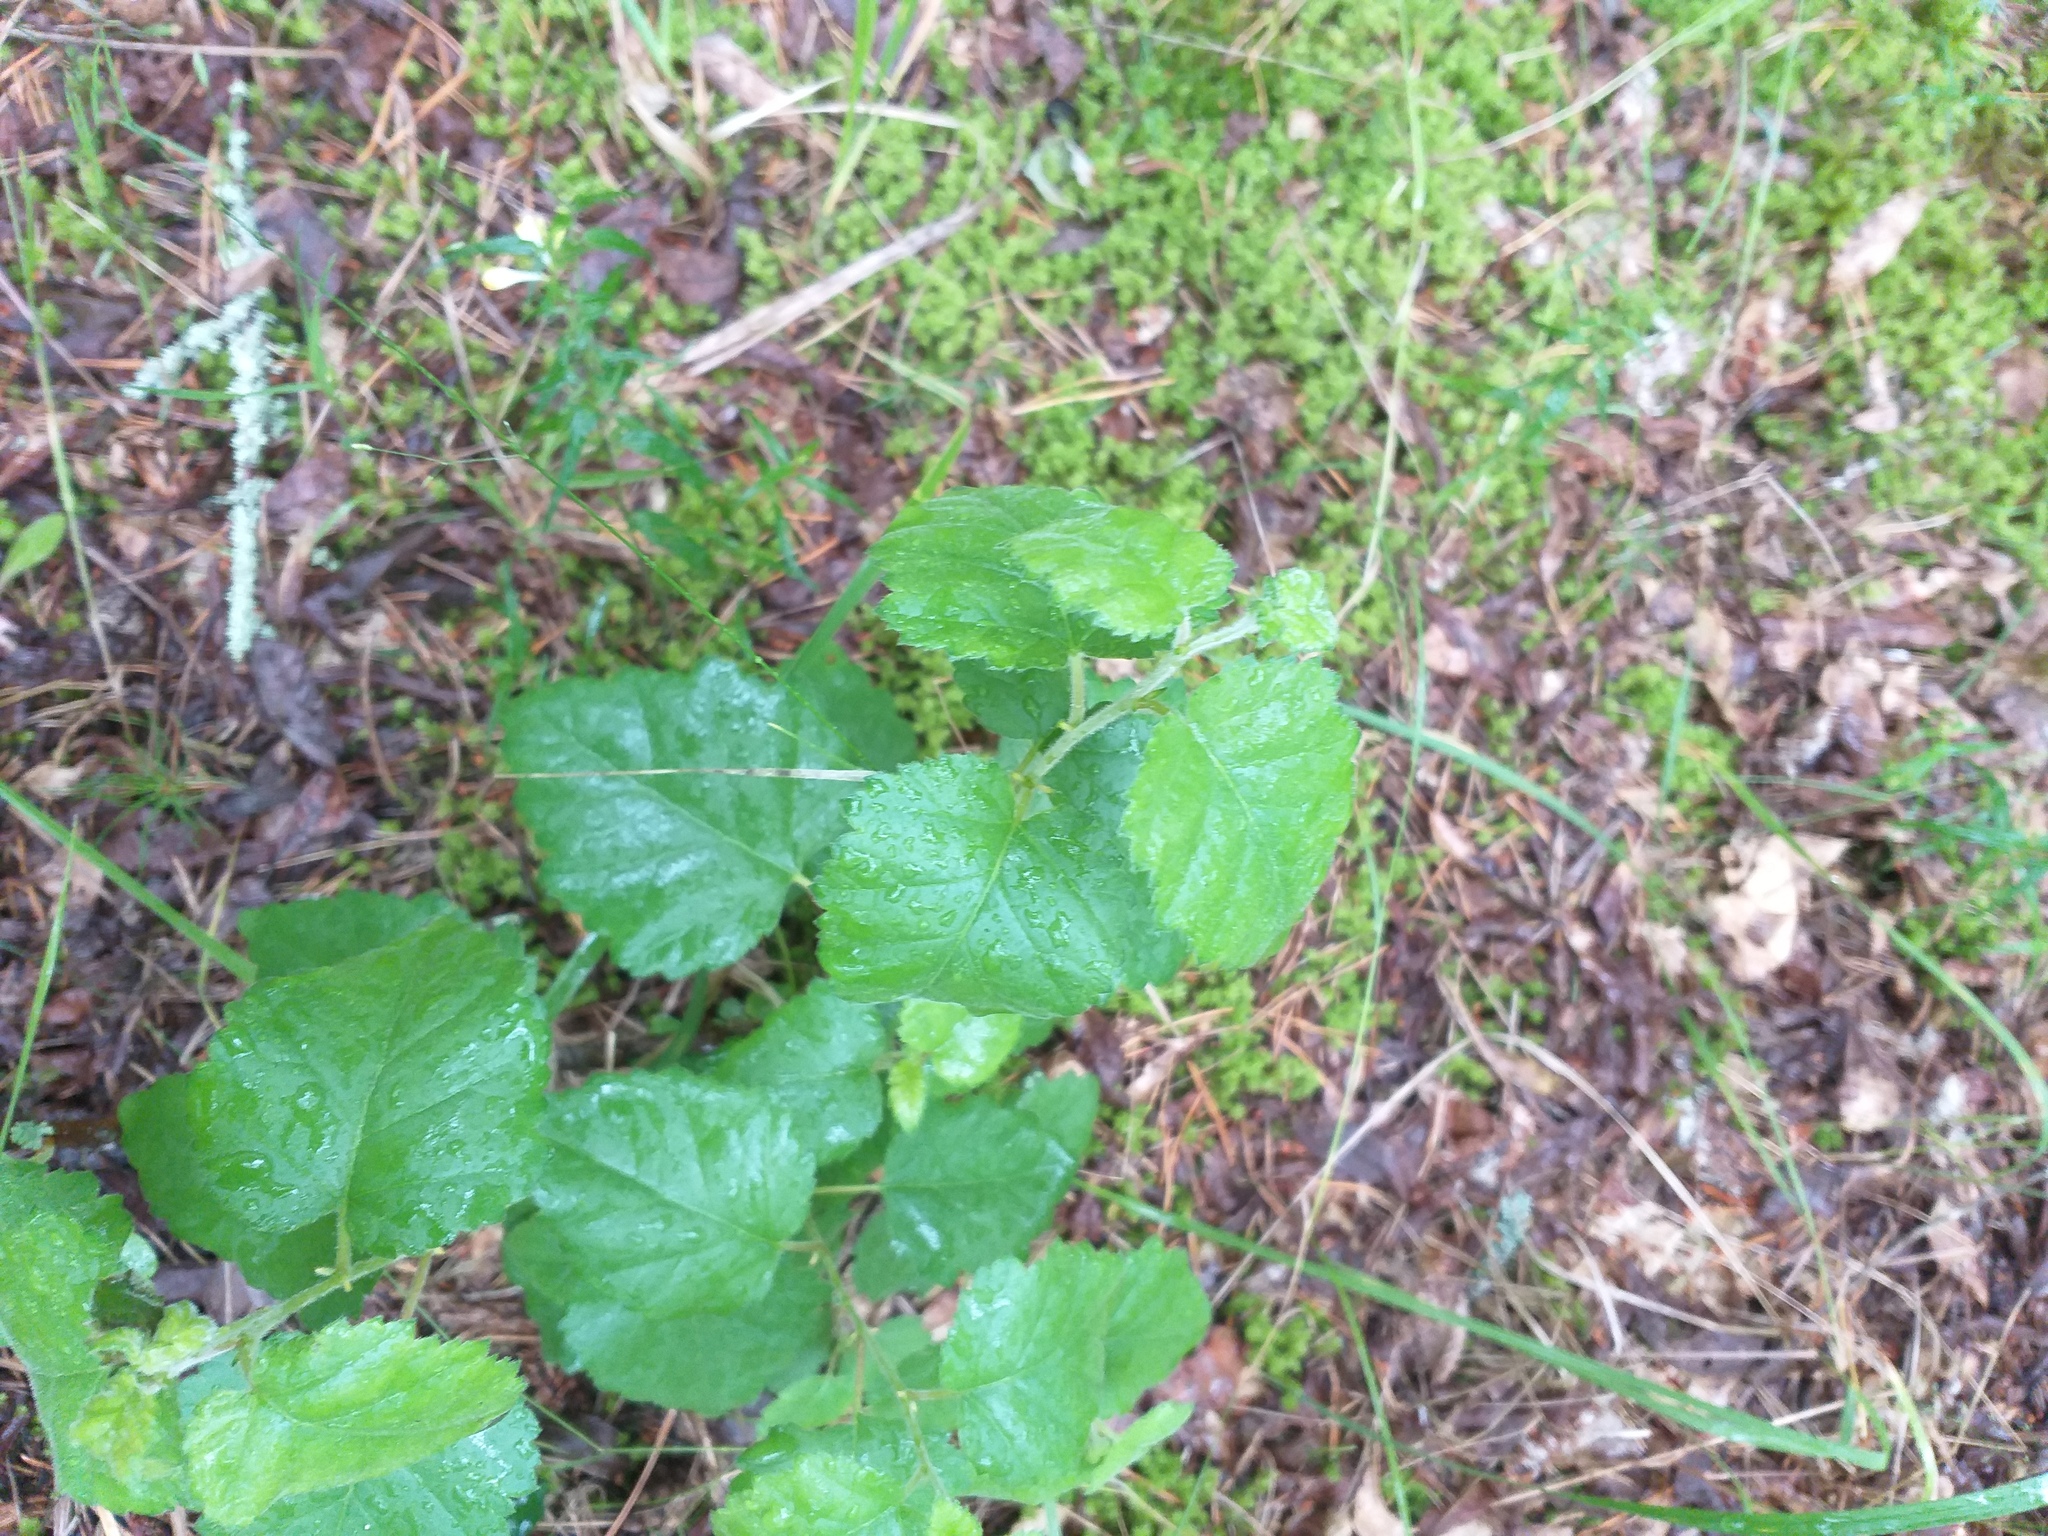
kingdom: Plantae
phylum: Tracheophyta
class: Magnoliopsida
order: Fagales
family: Betulaceae
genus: Betula
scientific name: Betula pubescens
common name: Downy birch
